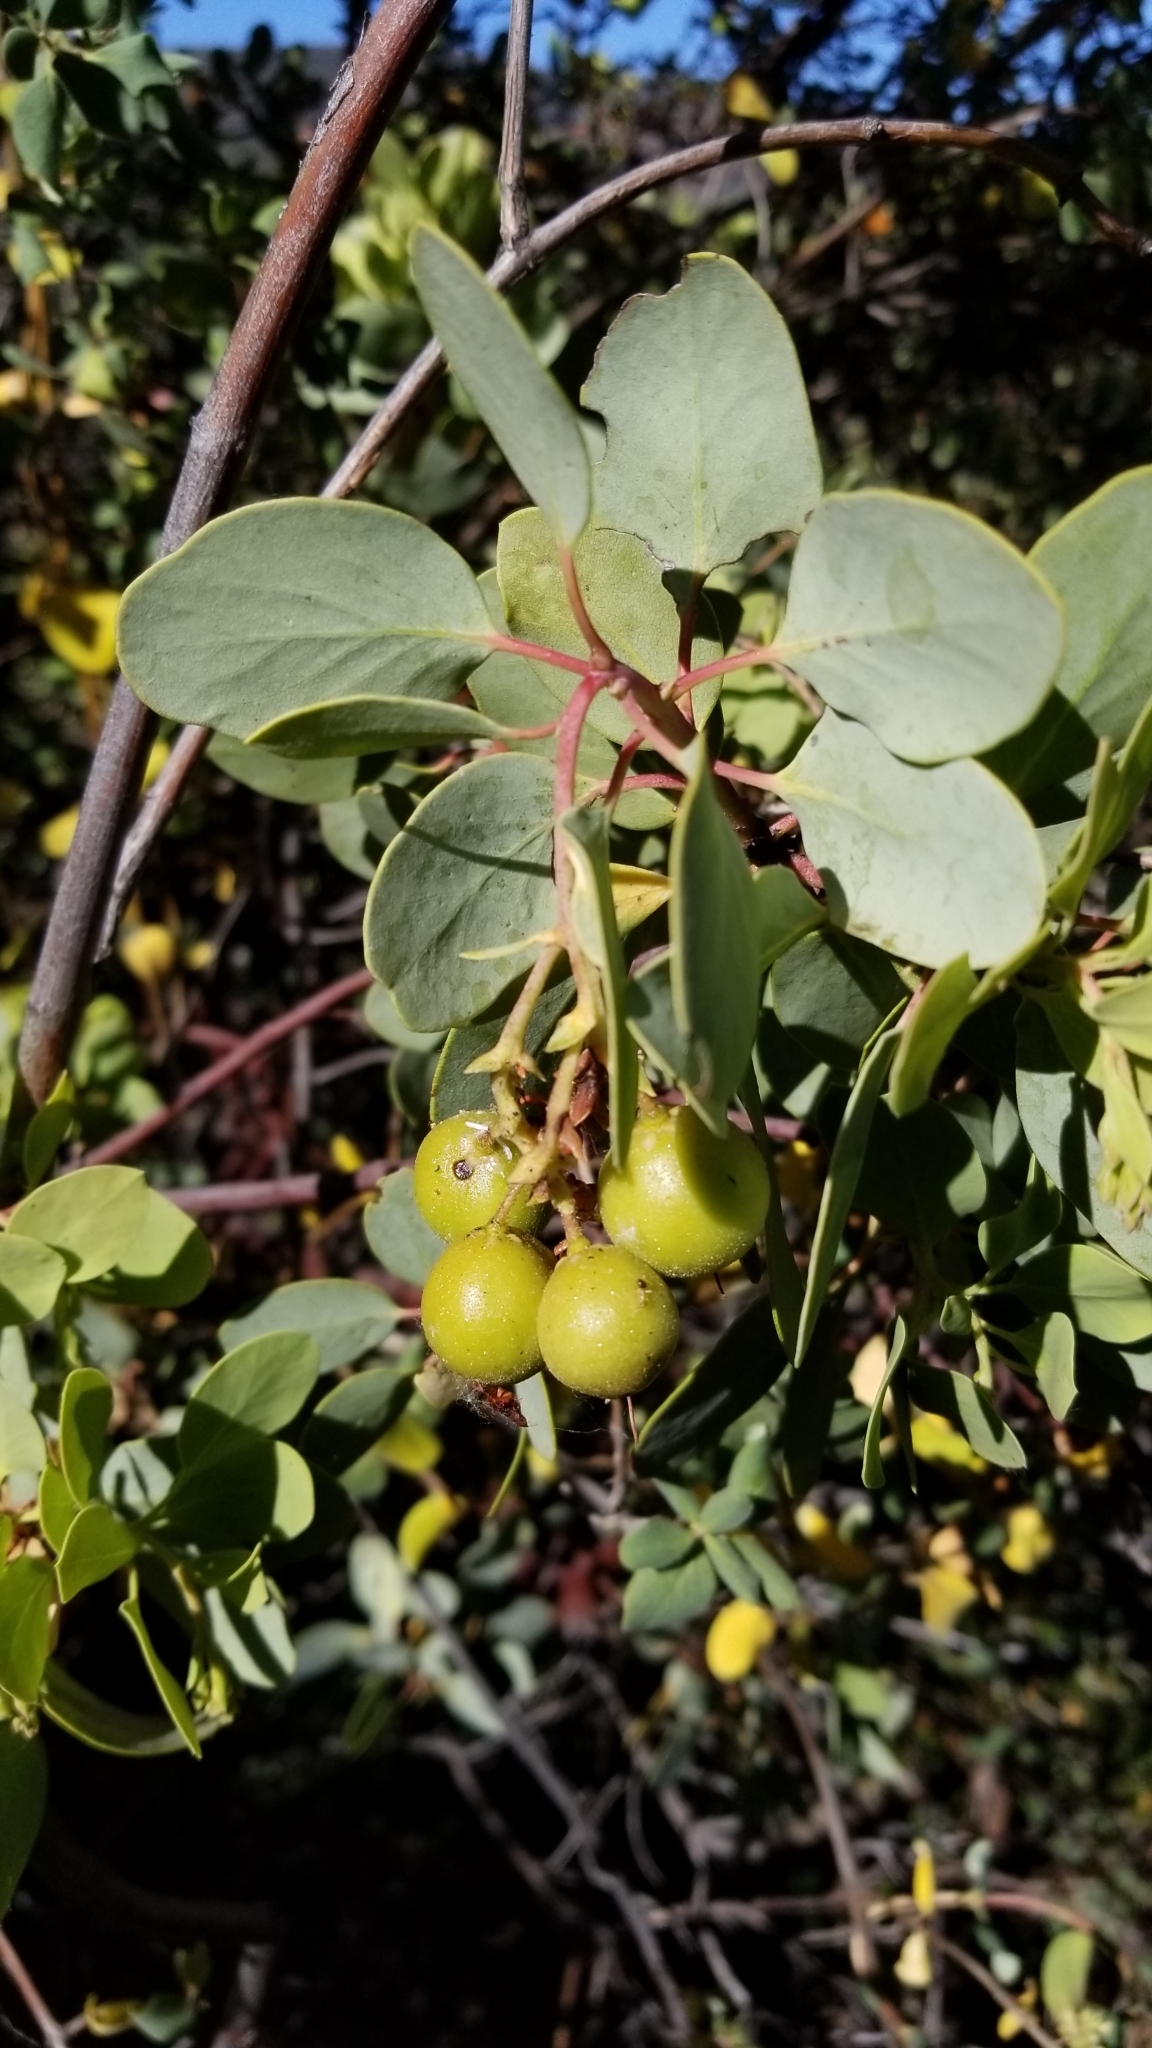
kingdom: Plantae
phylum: Tracheophyta
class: Magnoliopsida
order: Ericales
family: Ericaceae
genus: Arctostaphylos
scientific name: Arctostaphylos glauca
